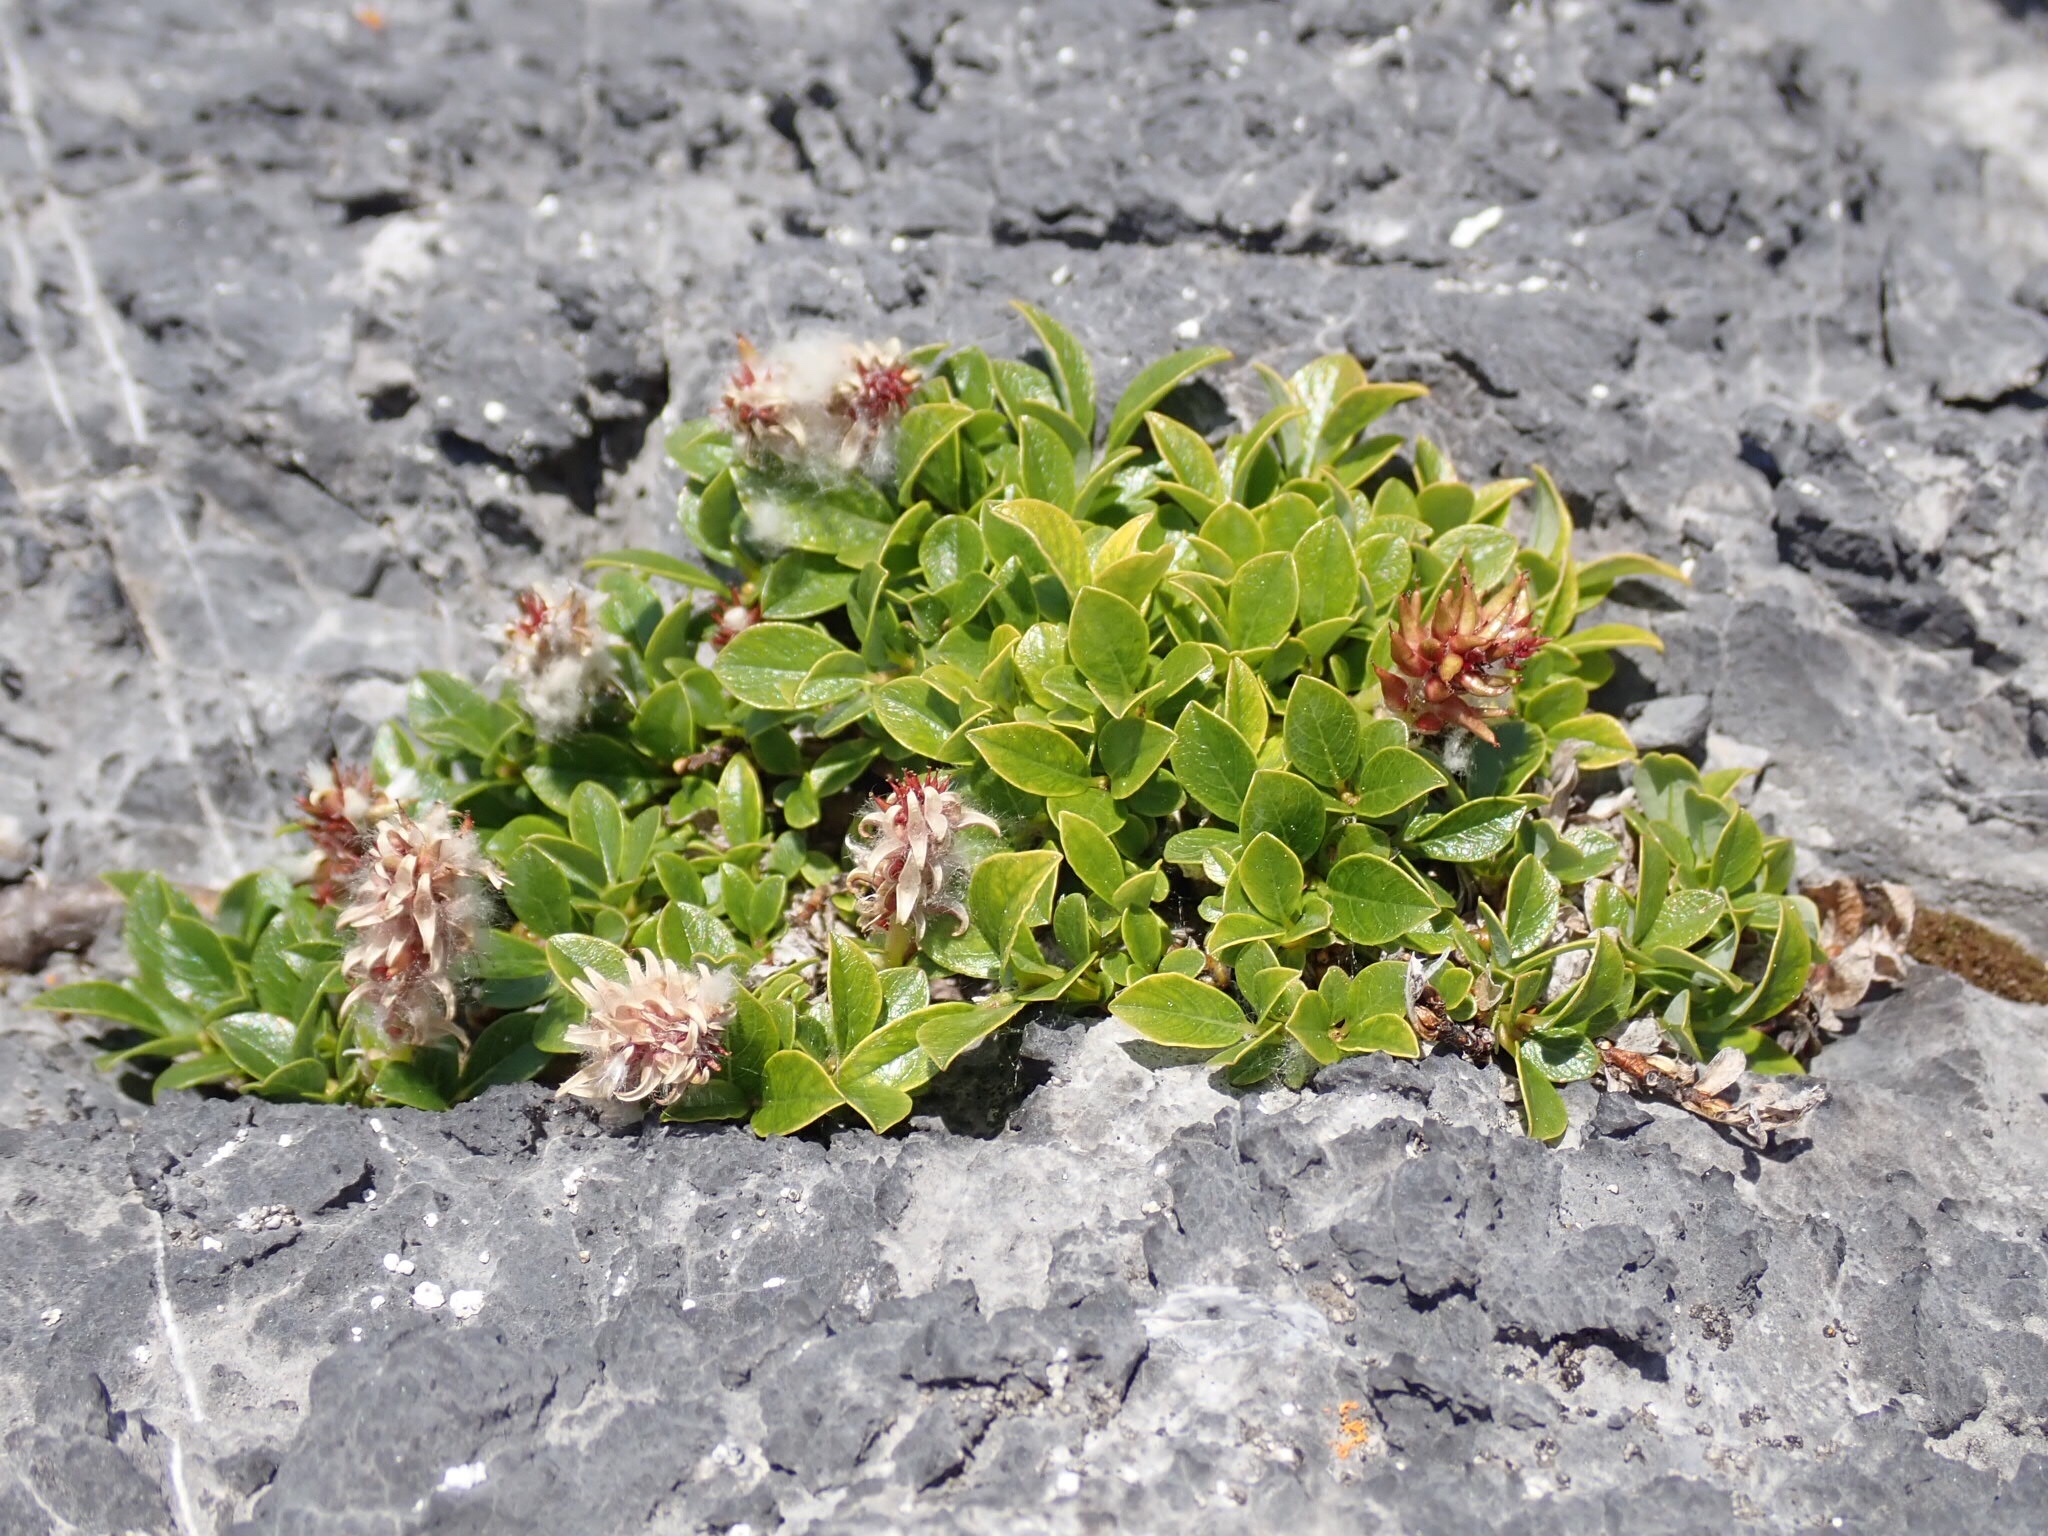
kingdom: Plantae
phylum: Tracheophyta
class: Magnoliopsida
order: Malpighiales
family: Salicaceae
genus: Salix
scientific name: Salix uva-ursi
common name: Bearberry willow
